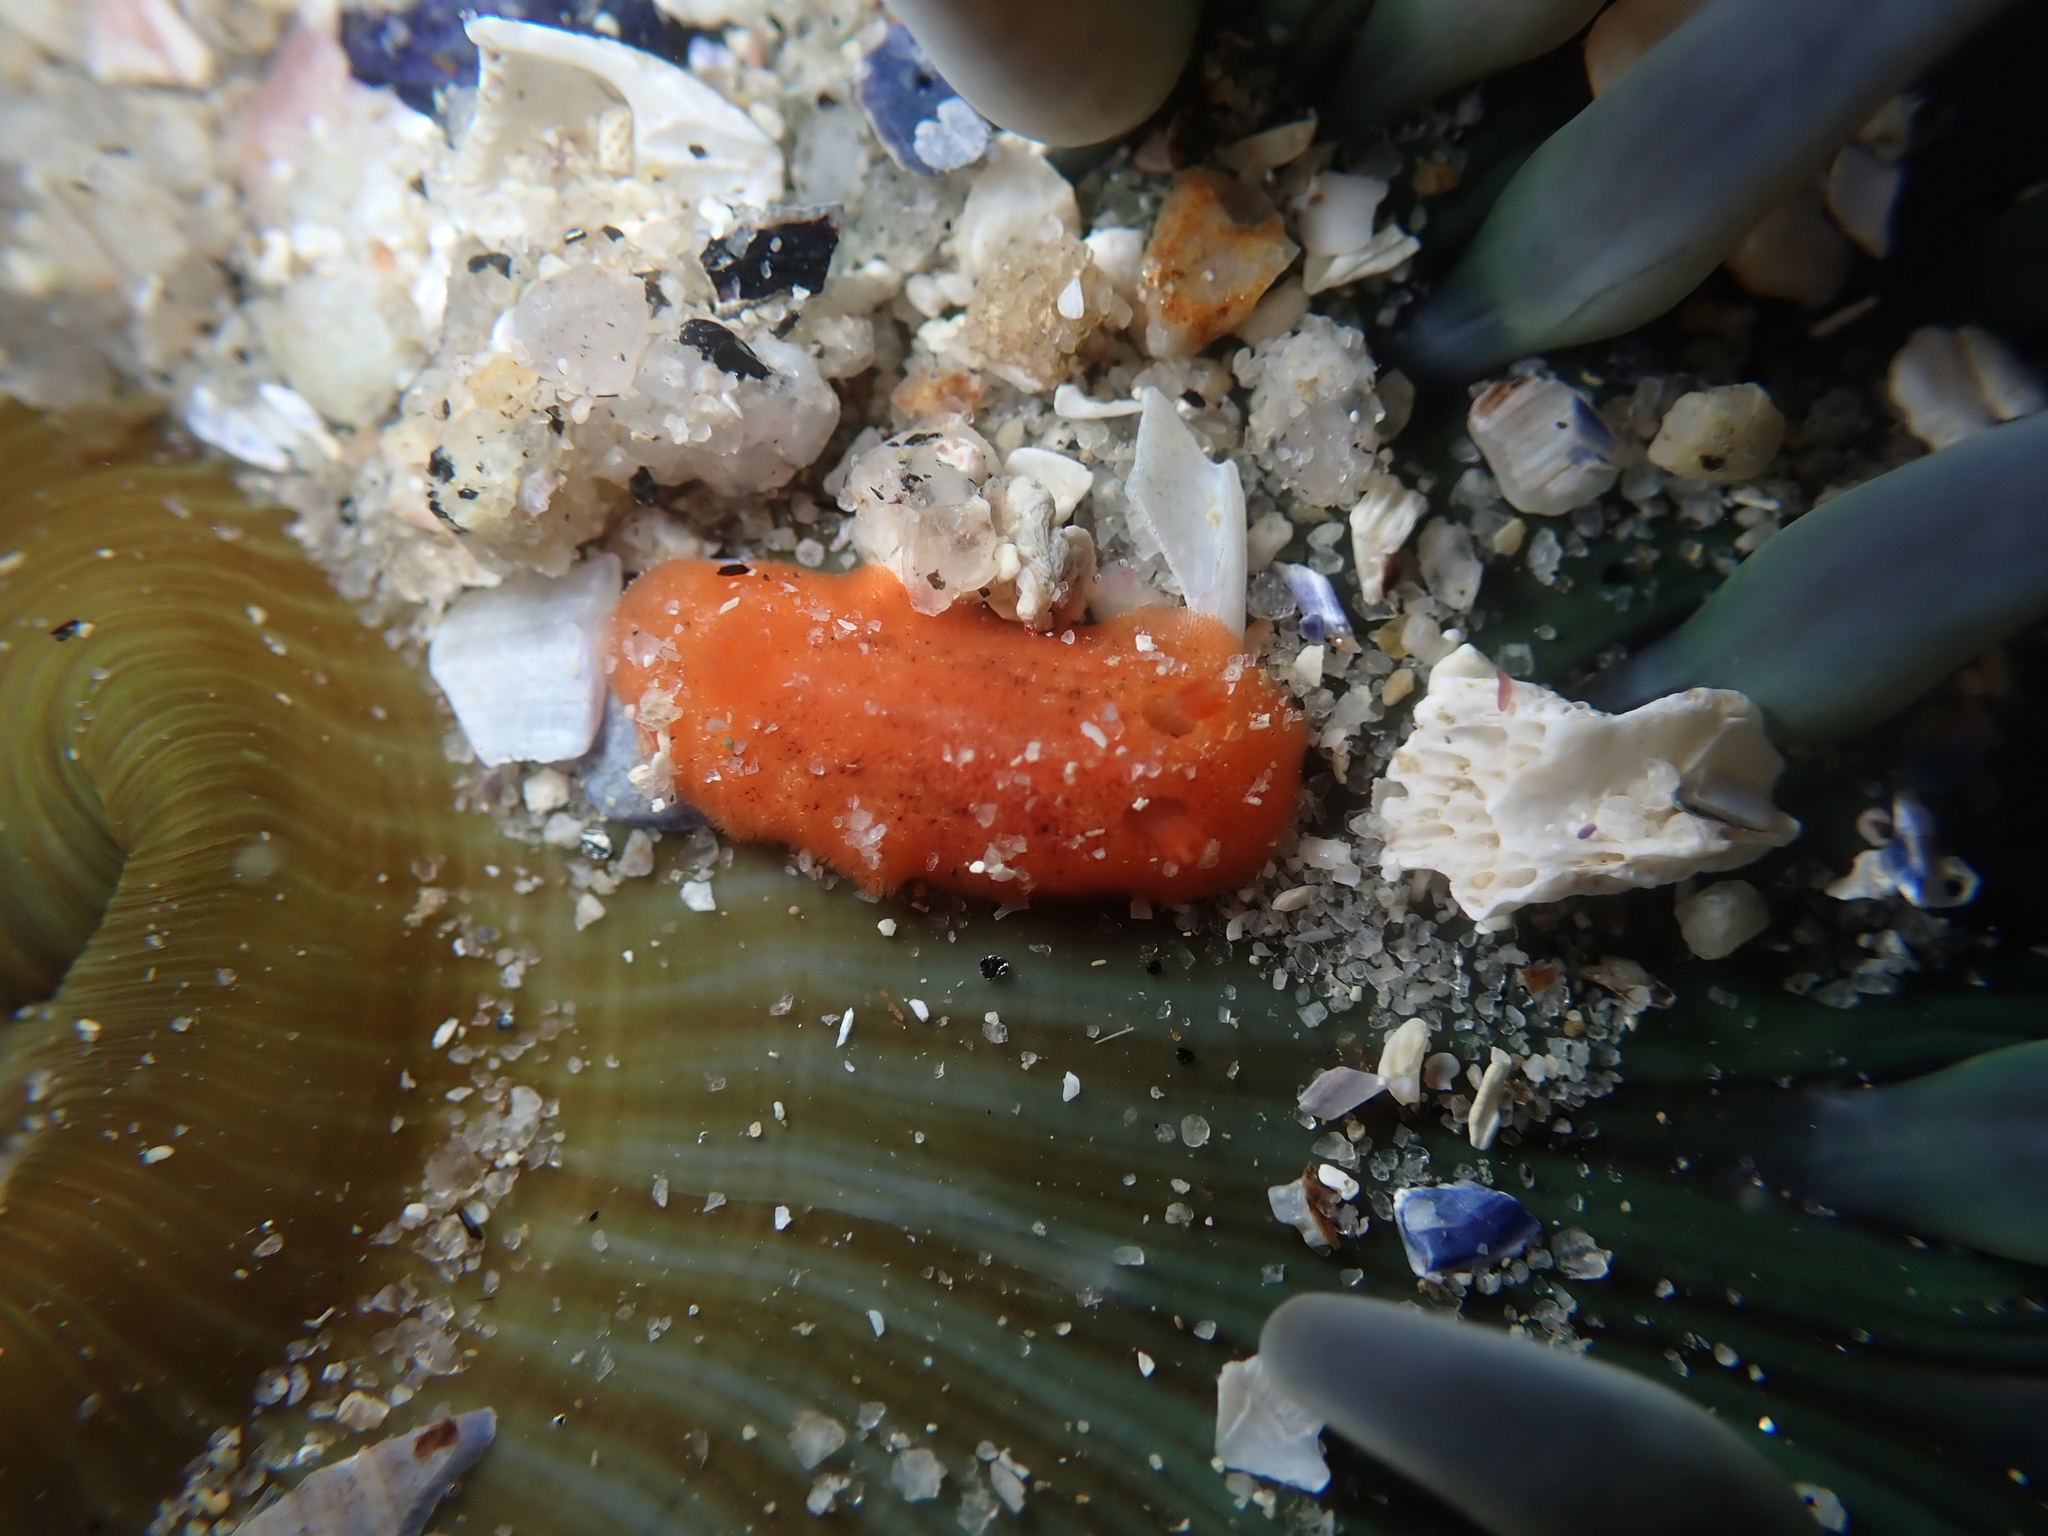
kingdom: Animalia
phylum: Mollusca
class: Gastropoda
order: Nudibranchia
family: Discodorididae
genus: Rostanga
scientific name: Rostanga pulchra
